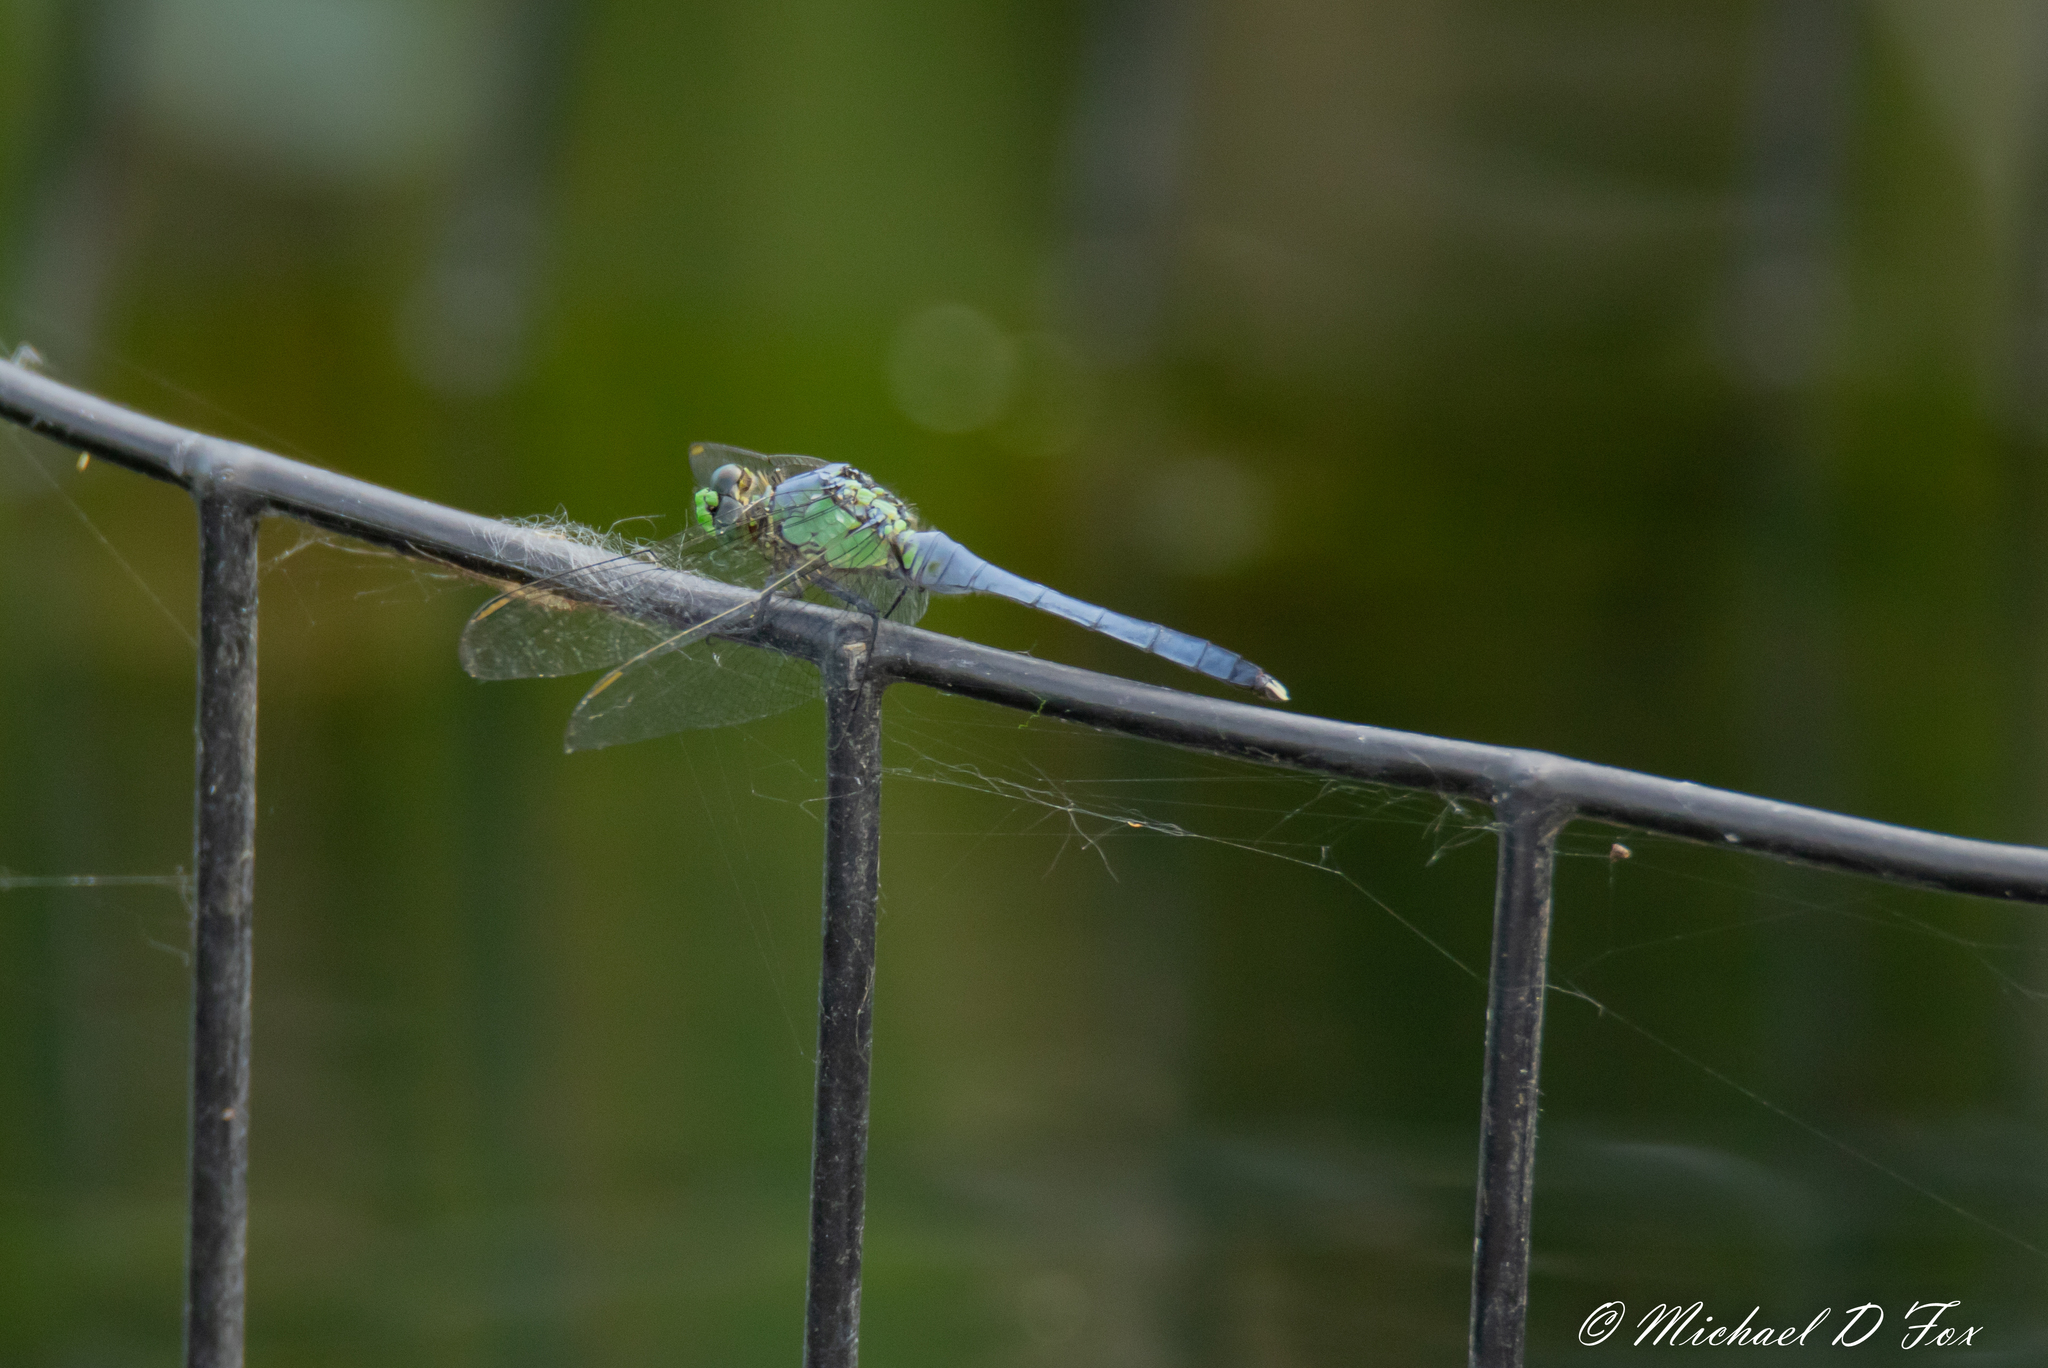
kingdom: Animalia
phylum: Arthropoda
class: Insecta
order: Odonata
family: Libellulidae
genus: Erythemis
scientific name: Erythemis simplicicollis
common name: Eastern pondhawk
